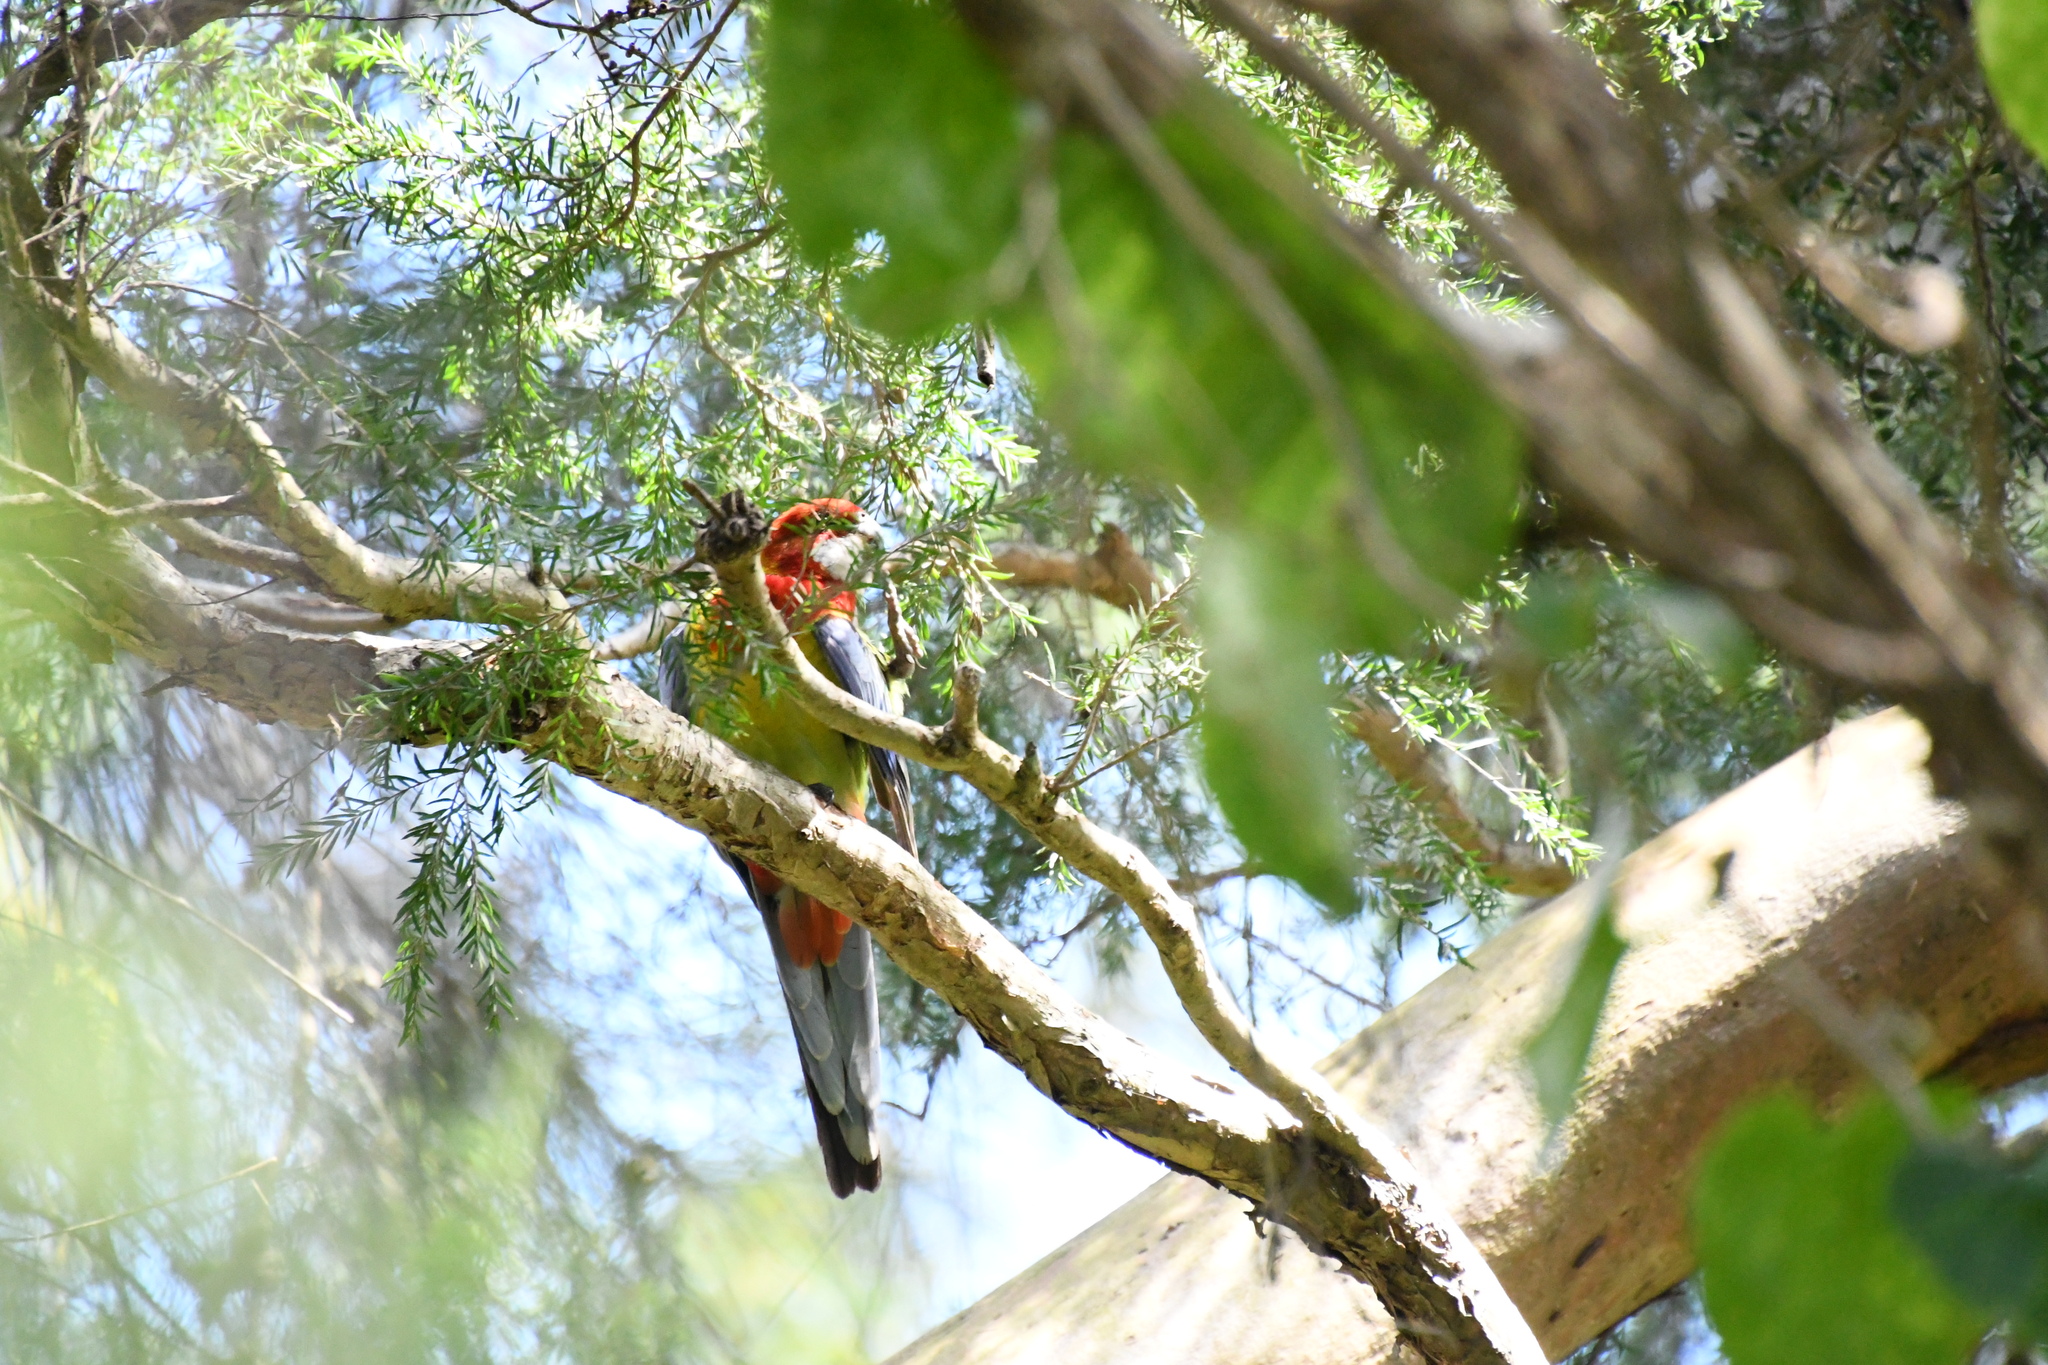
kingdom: Animalia
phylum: Chordata
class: Aves
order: Psittaciformes
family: Psittacidae
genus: Platycercus
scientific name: Platycercus eximius
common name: Eastern rosella
